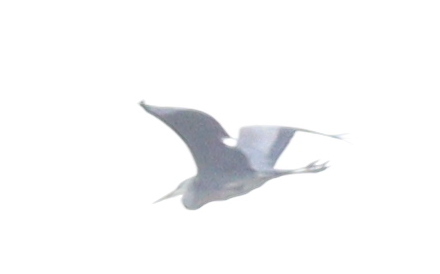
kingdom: Animalia
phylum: Chordata
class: Aves
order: Pelecaniformes
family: Ardeidae
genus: Ardea
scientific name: Ardea cinerea
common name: Grey heron
